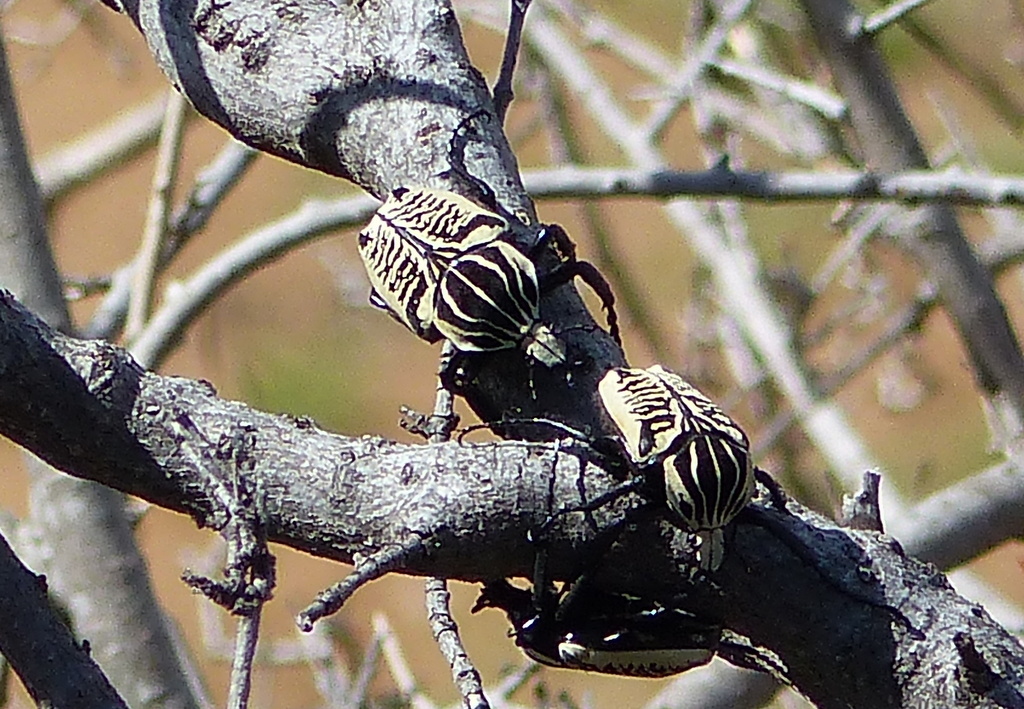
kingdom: Animalia
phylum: Arthropoda
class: Insecta
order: Coleoptera
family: Scarabaeidae
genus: Goliathus
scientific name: Goliathus albosignatus
